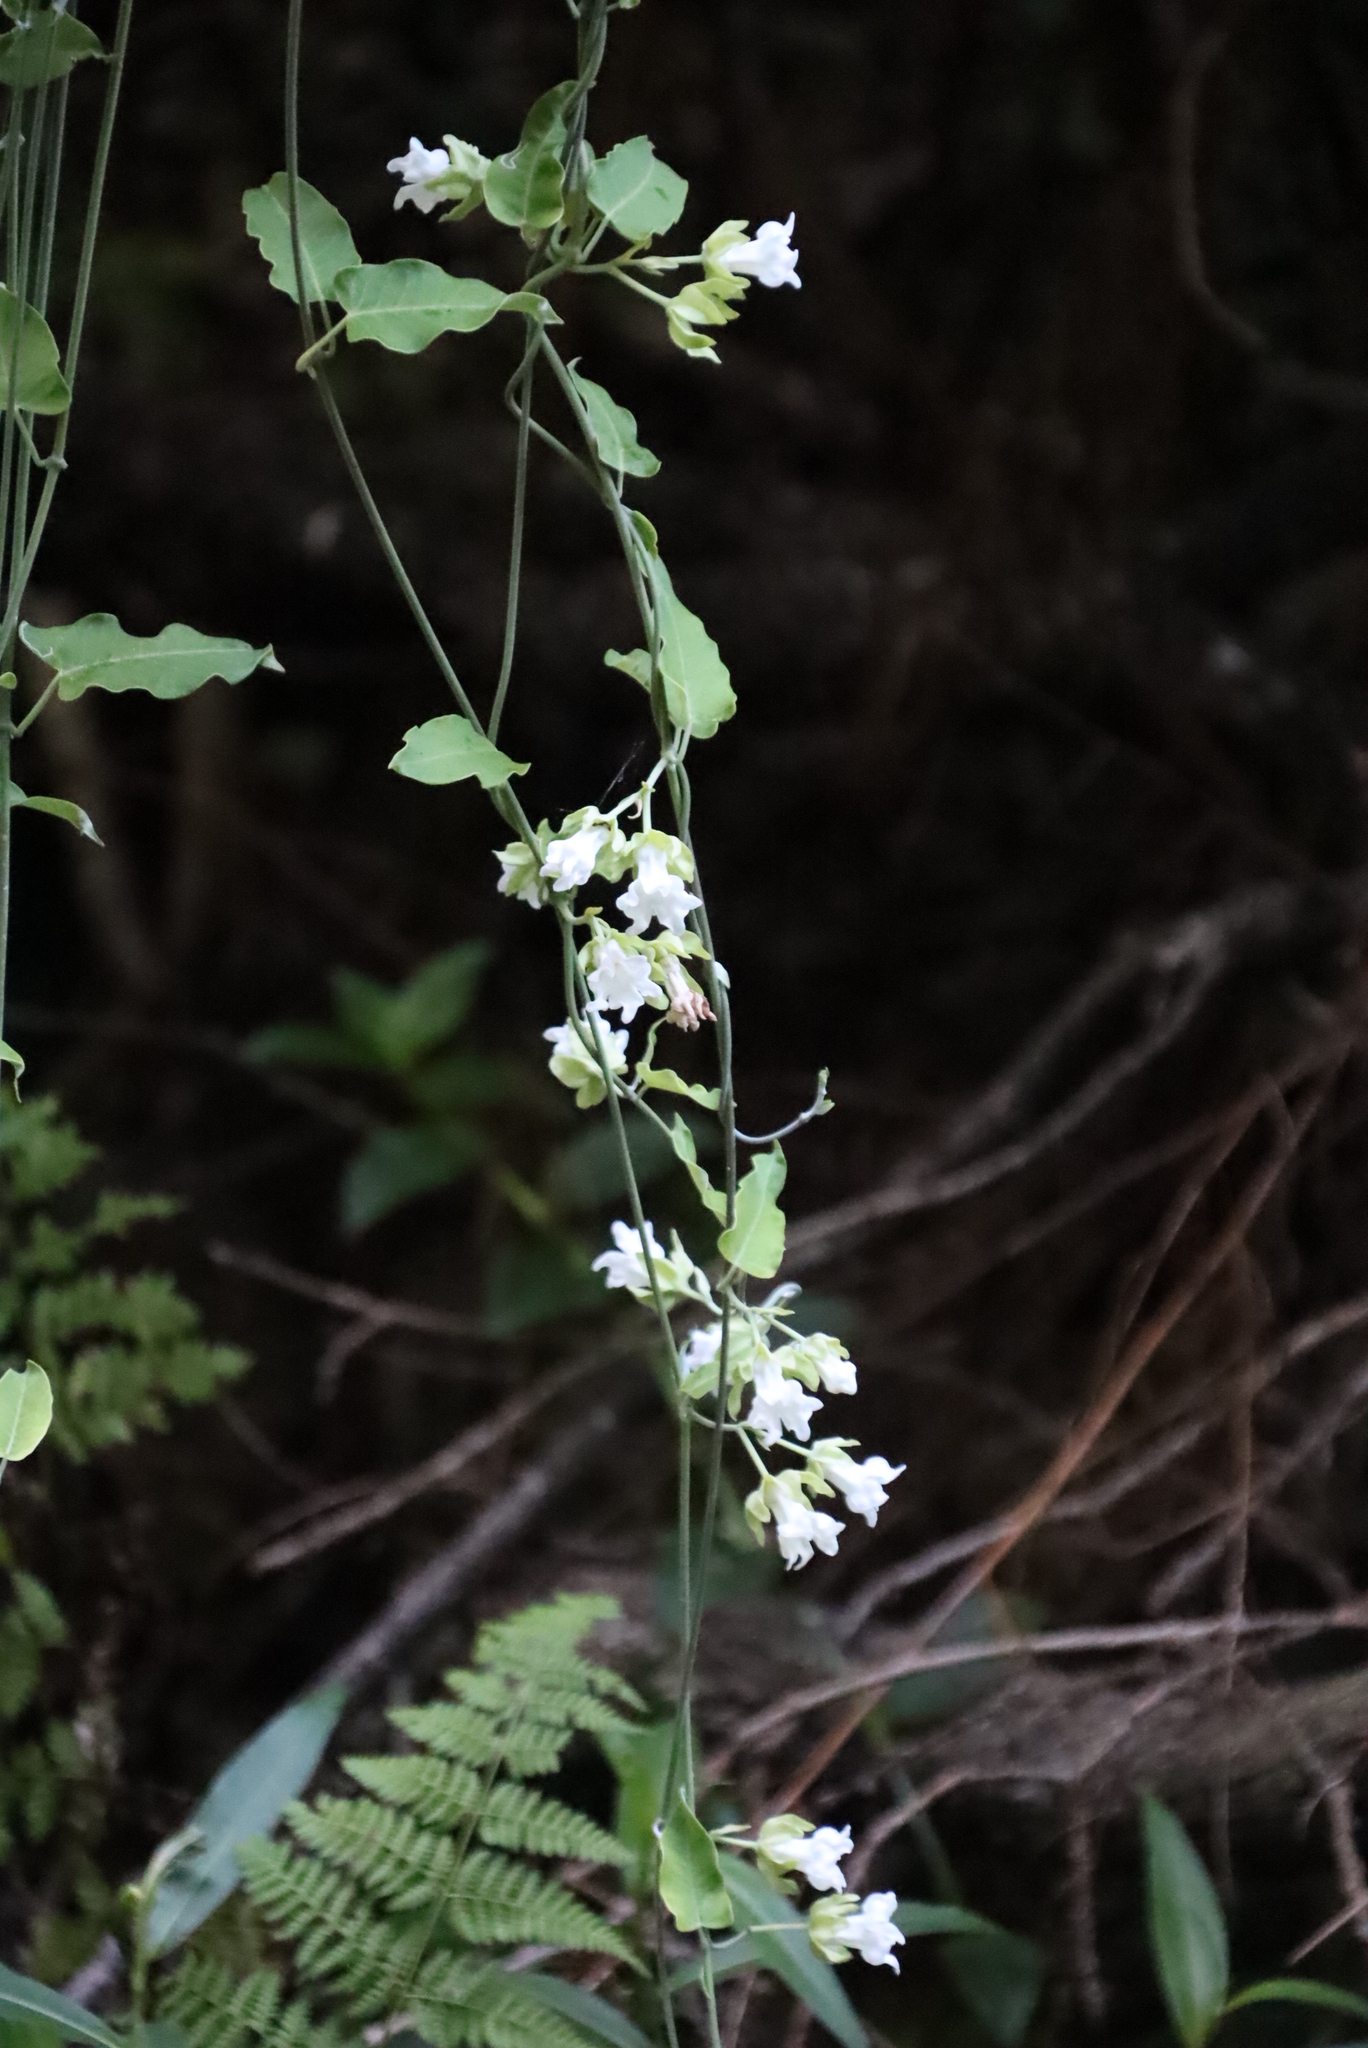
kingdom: Plantae
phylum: Tracheophyta
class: Magnoliopsida
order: Gentianales
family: Apocynaceae
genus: Araujia
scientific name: Araujia sericifera
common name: White bladderflower
